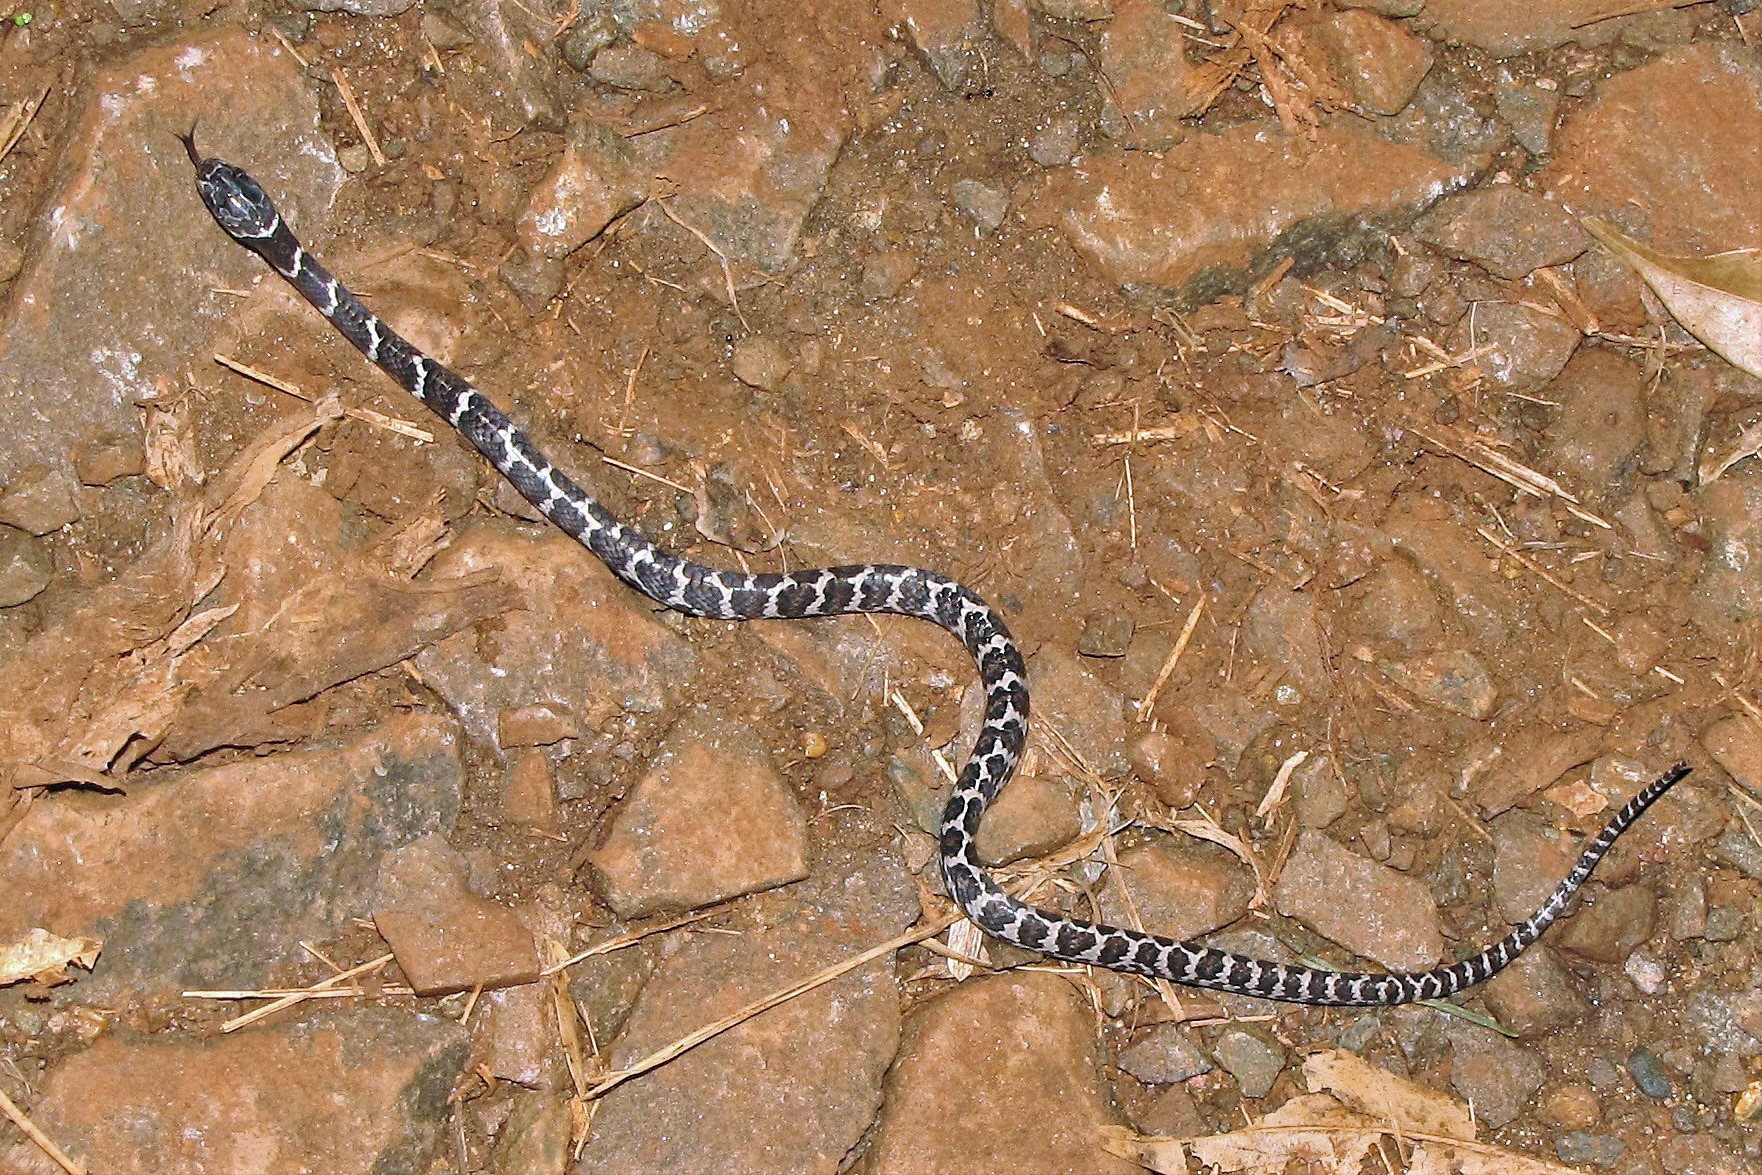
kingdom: Animalia
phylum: Chordata
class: Squamata
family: Colubridae
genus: Dipsas
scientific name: Dipsas ventrimaculata
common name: Boulenger's tree snake
